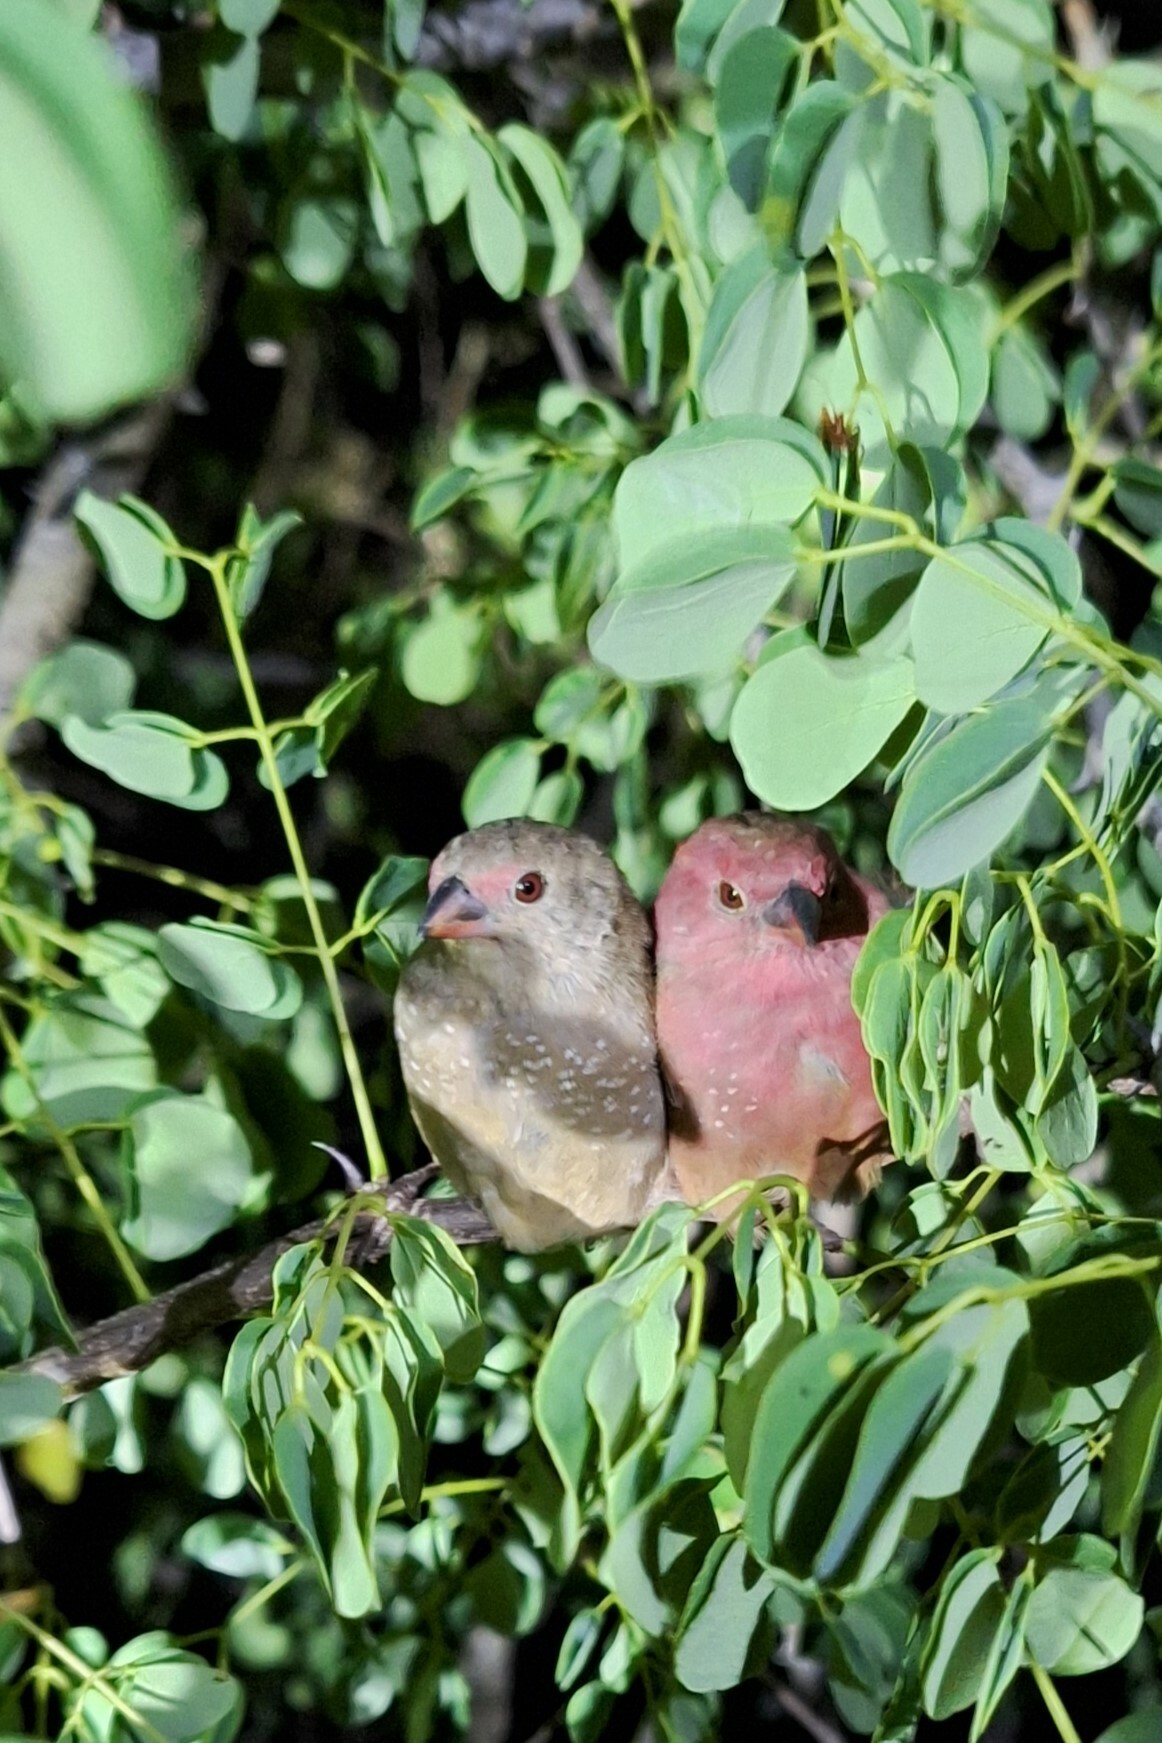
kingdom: Animalia
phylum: Chordata
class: Aves
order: Passeriformes
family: Estrildidae
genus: Lagonosticta
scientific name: Lagonosticta senegala
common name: Red-billed firefinch
